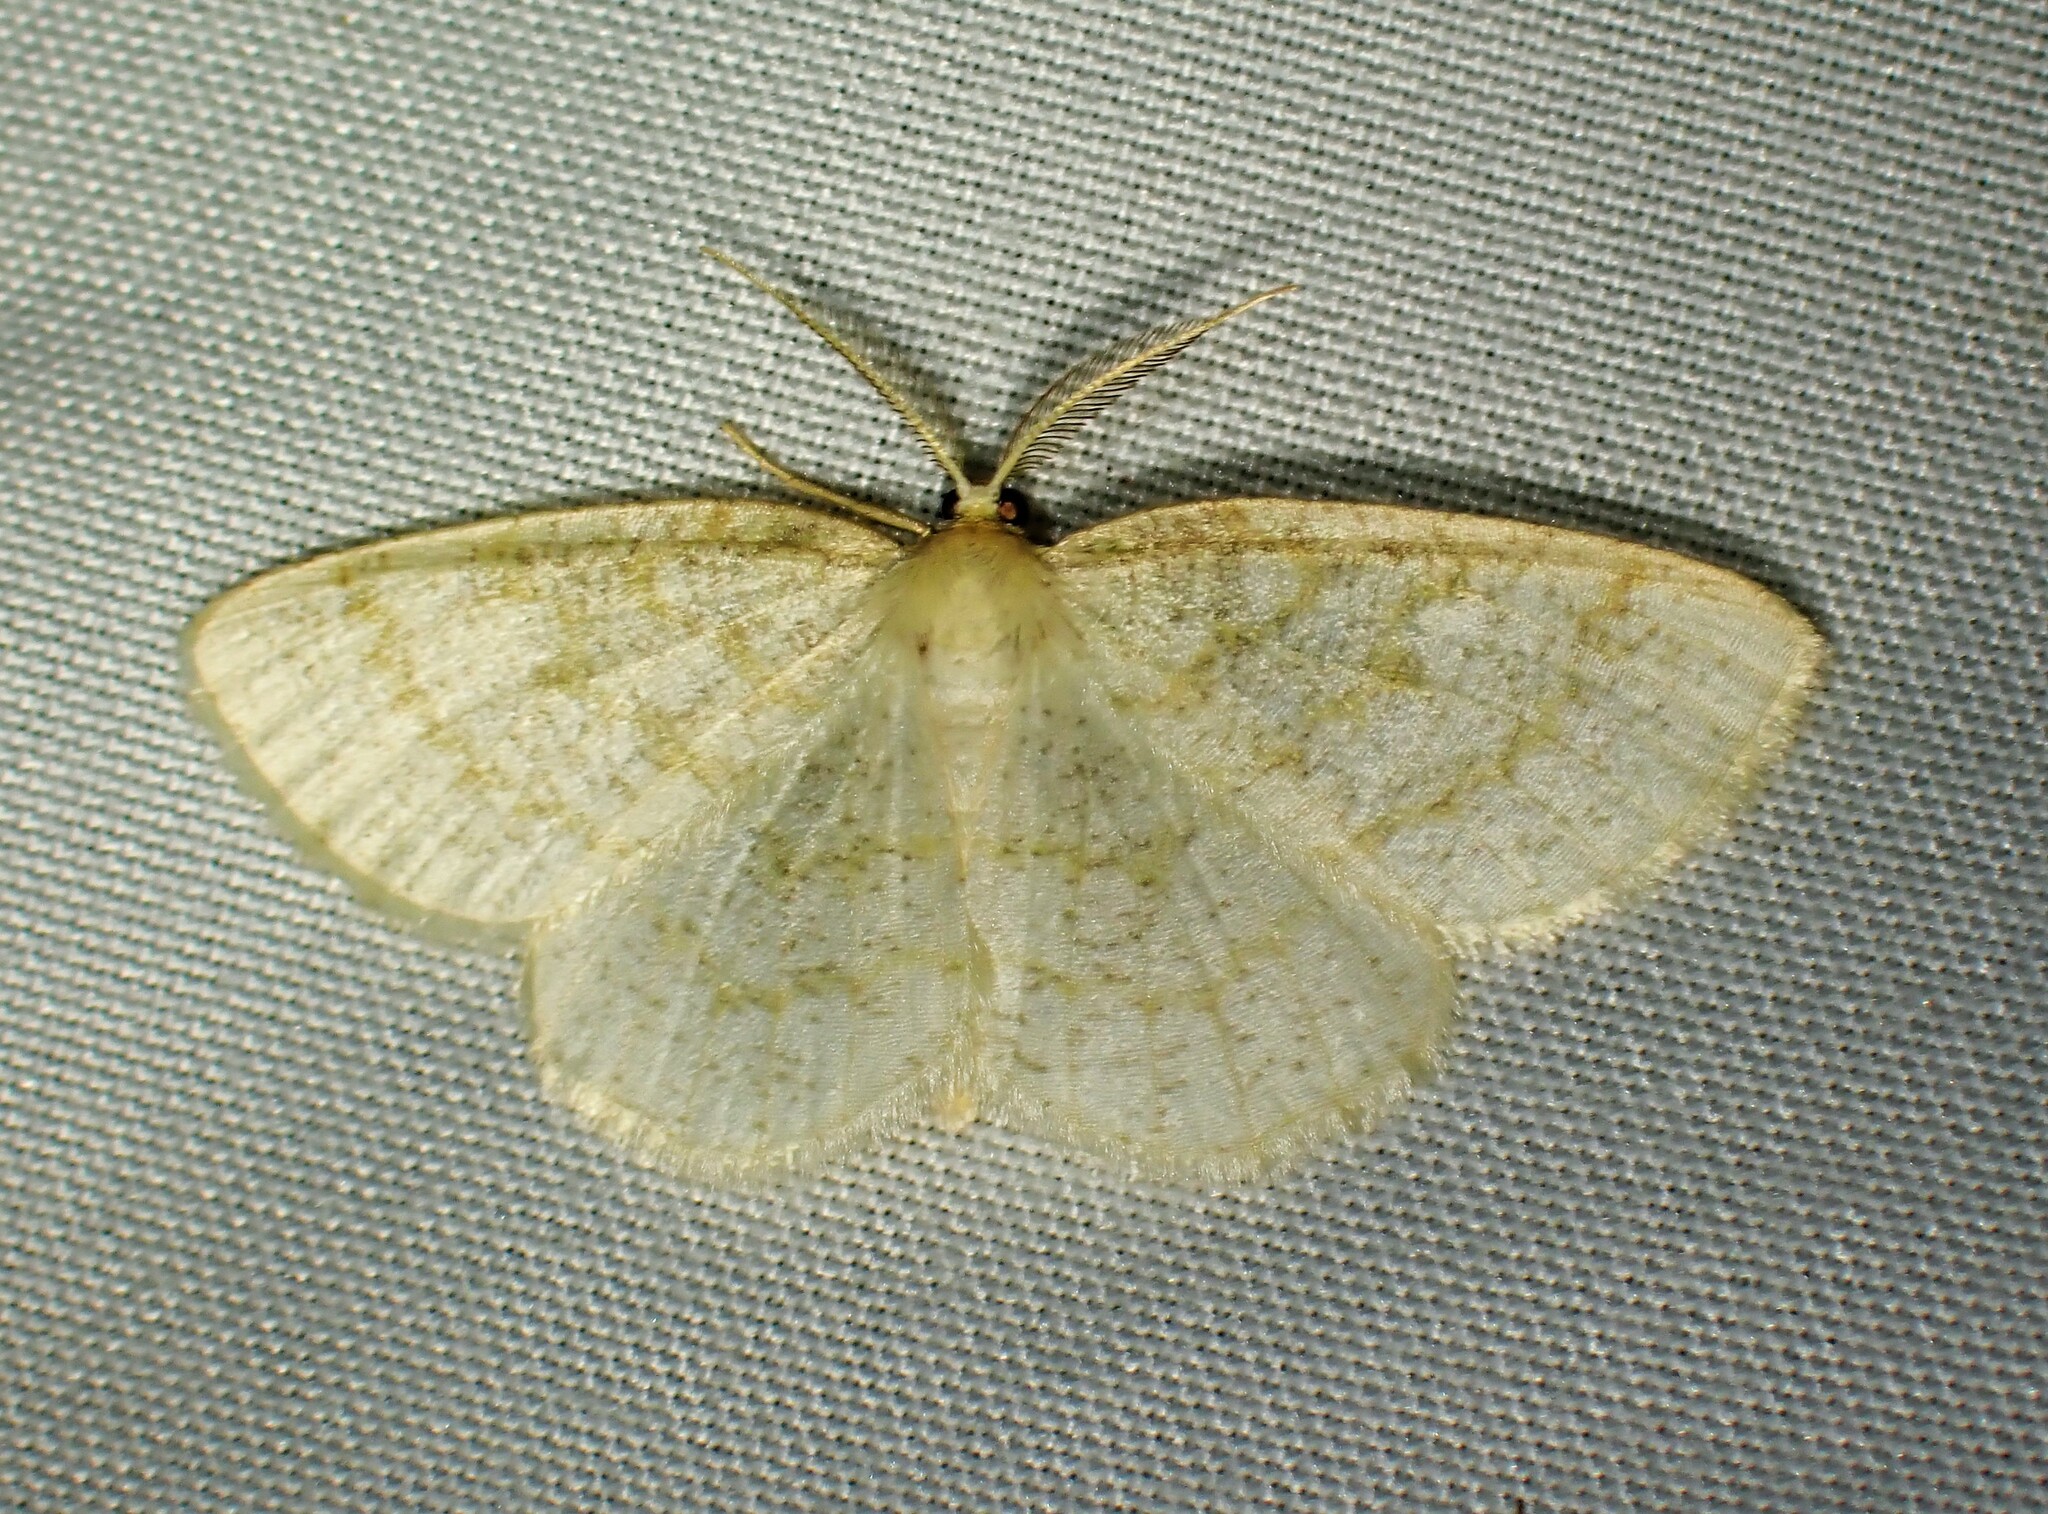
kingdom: Animalia
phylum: Arthropoda
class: Insecta
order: Lepidoptera
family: Geometridae
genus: Cabera
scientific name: Cabera erythemaria
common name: Yellow-dusted cream moth
